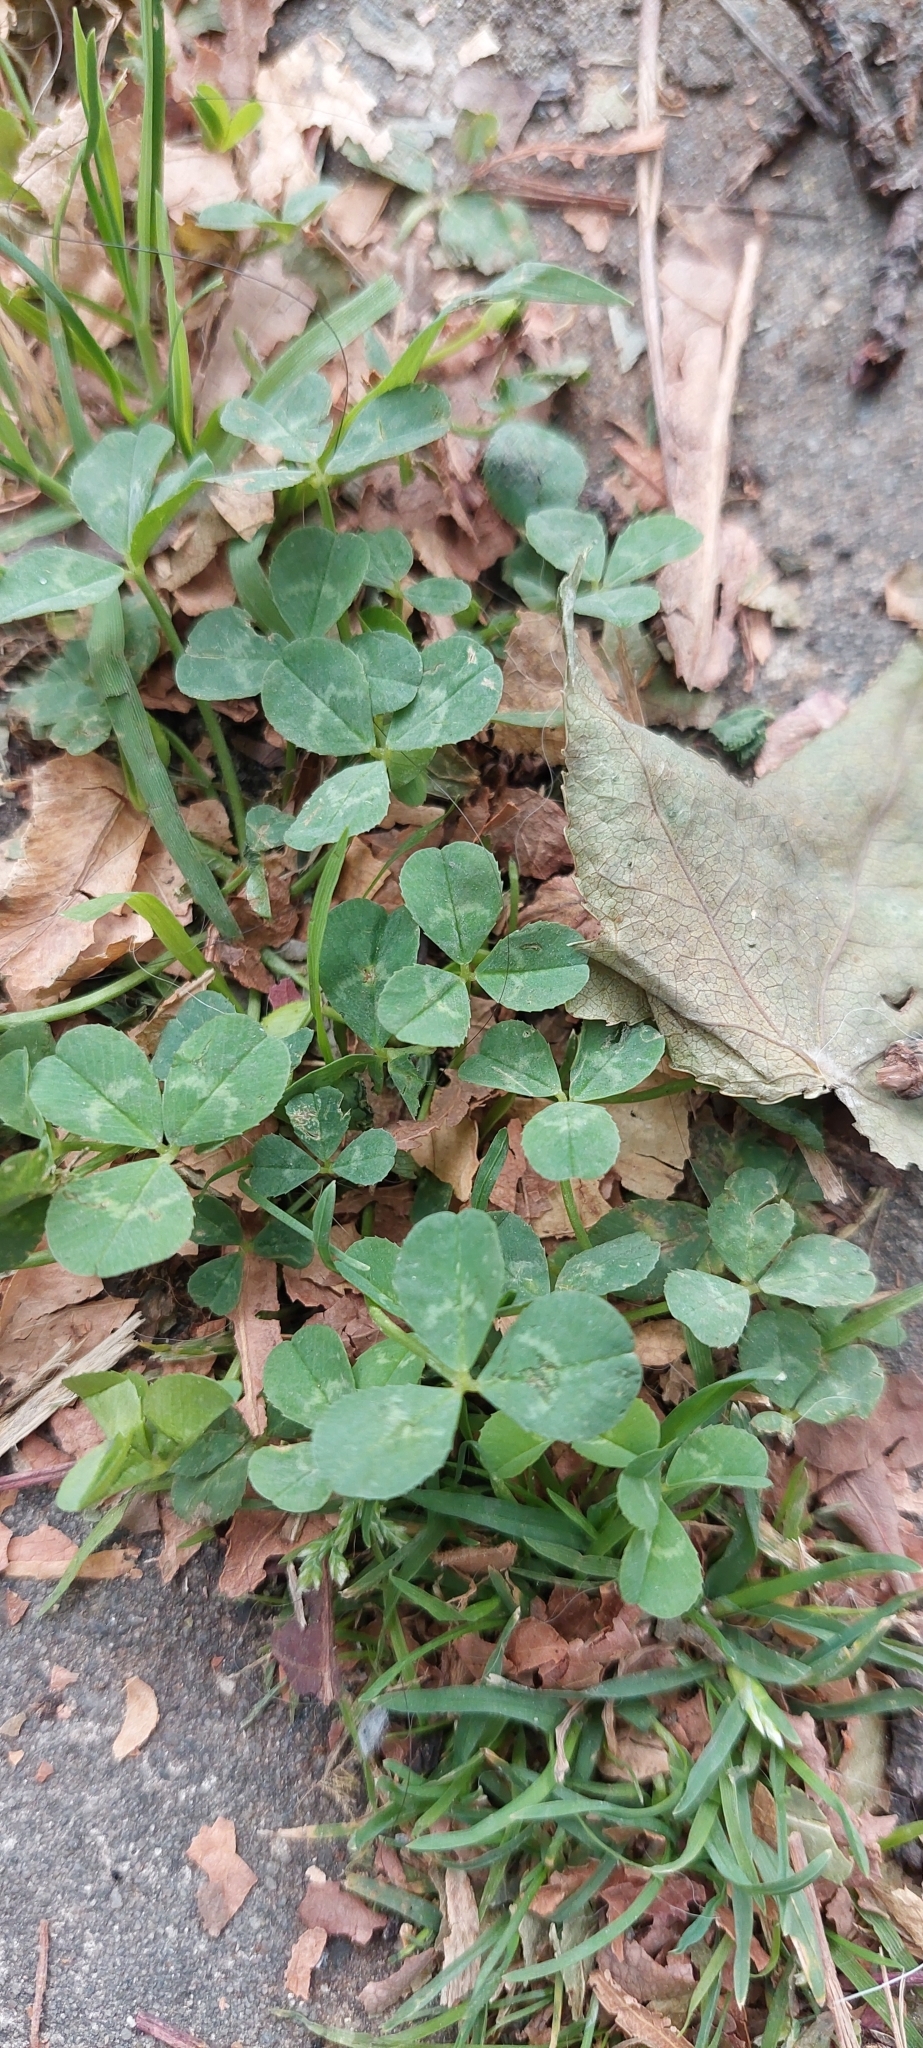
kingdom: Plantae
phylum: Tracheophyta
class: Magnoliopsida
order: Fabales
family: Fabaceae
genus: Trifolium
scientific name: Trifolium repens
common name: White clover
